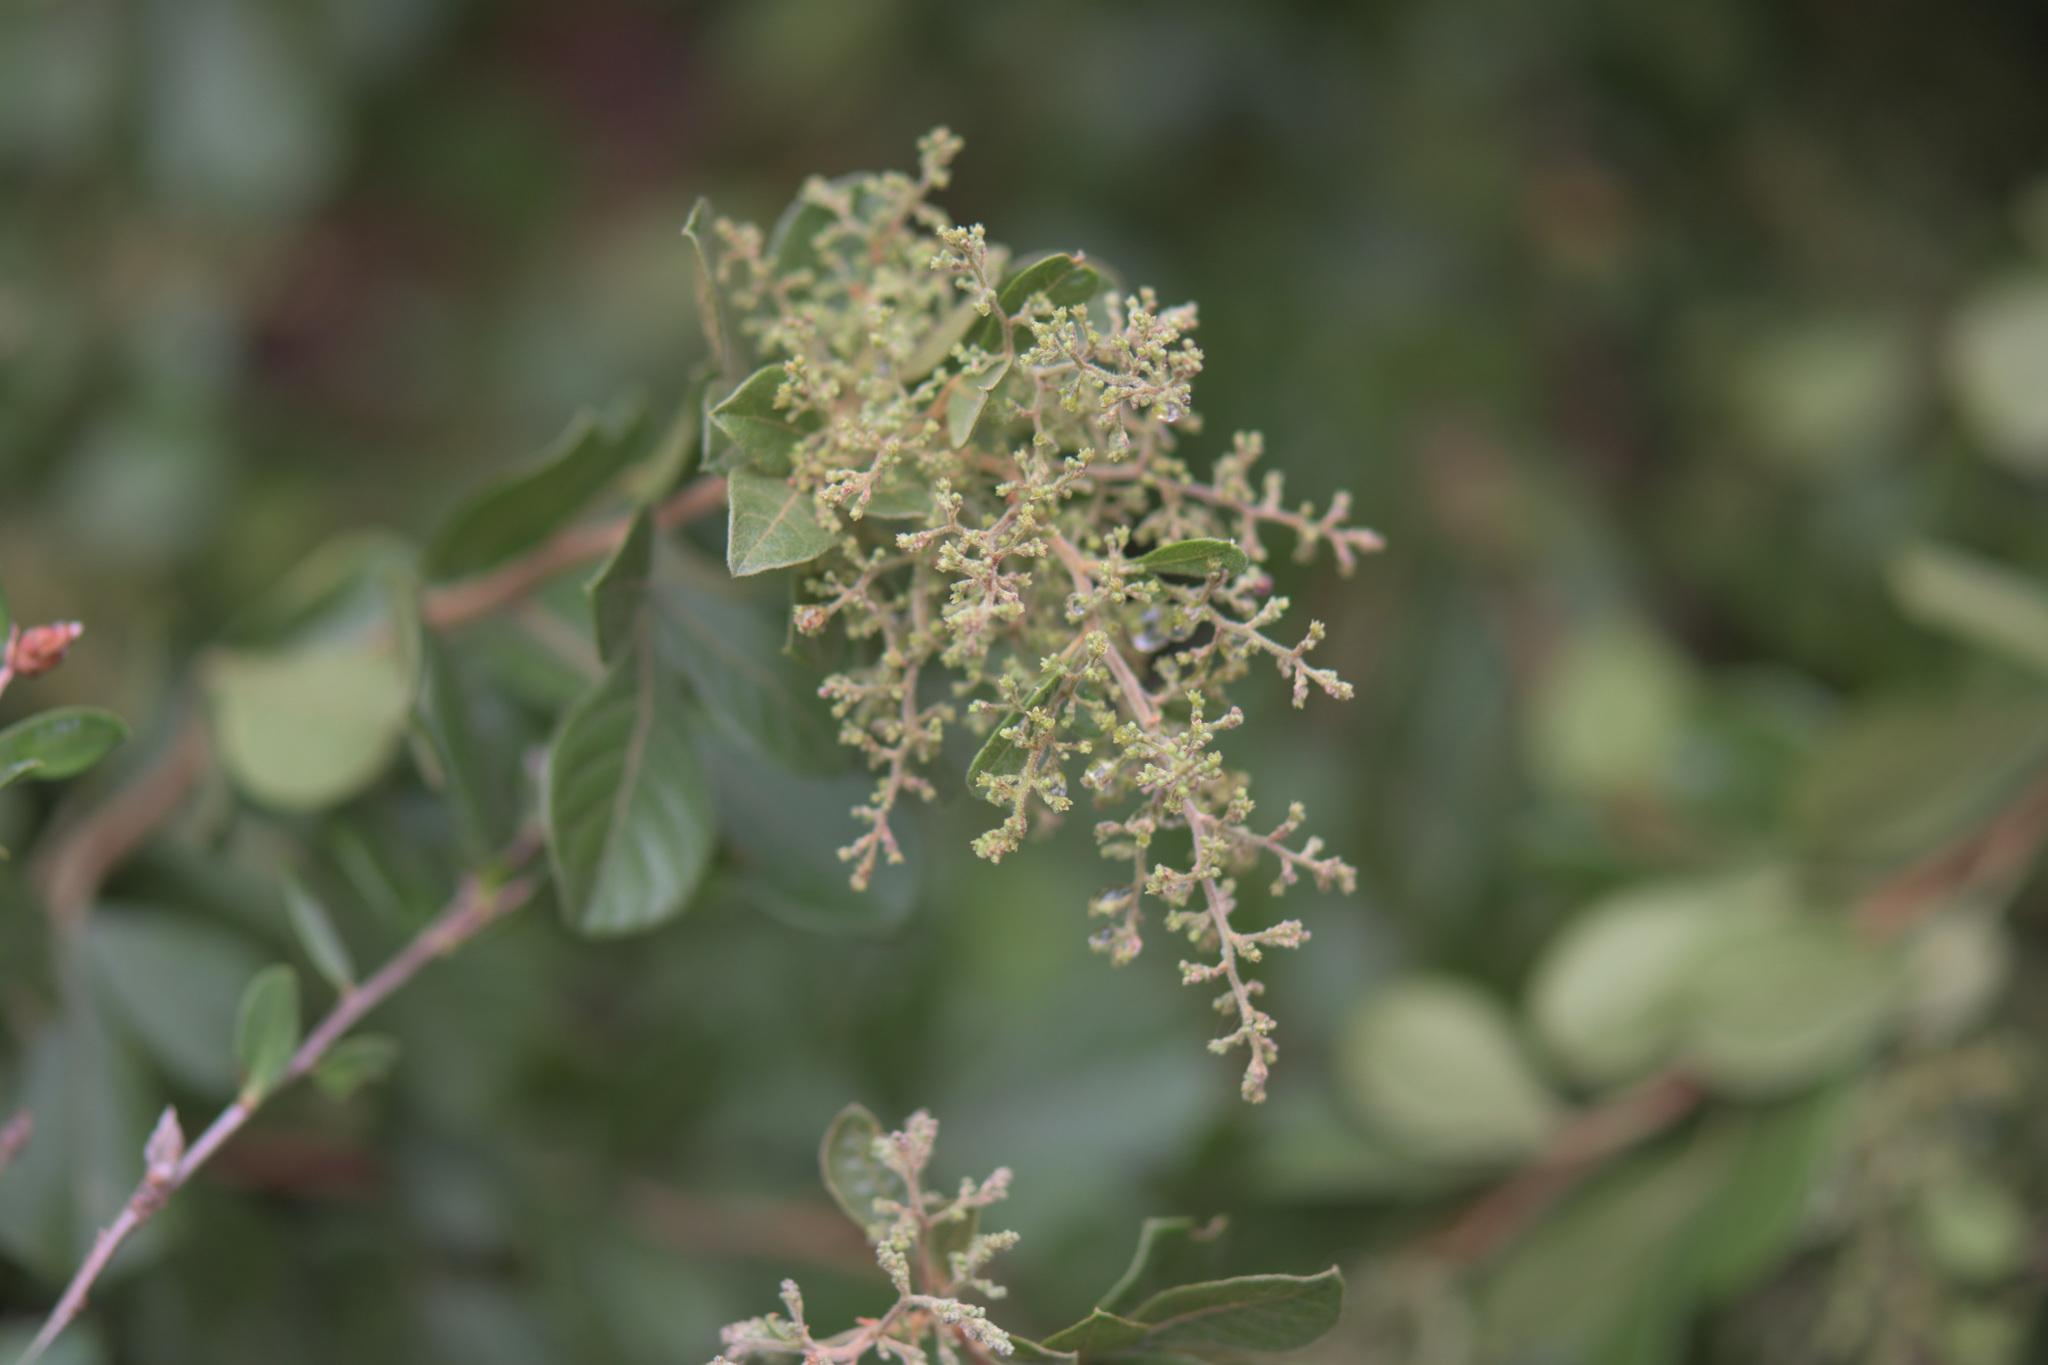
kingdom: Plantae
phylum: Tracheophyta
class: Magnoliopsida
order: Sapindales
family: Anacardiaceae
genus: Searsia
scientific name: Searsia pyroides
